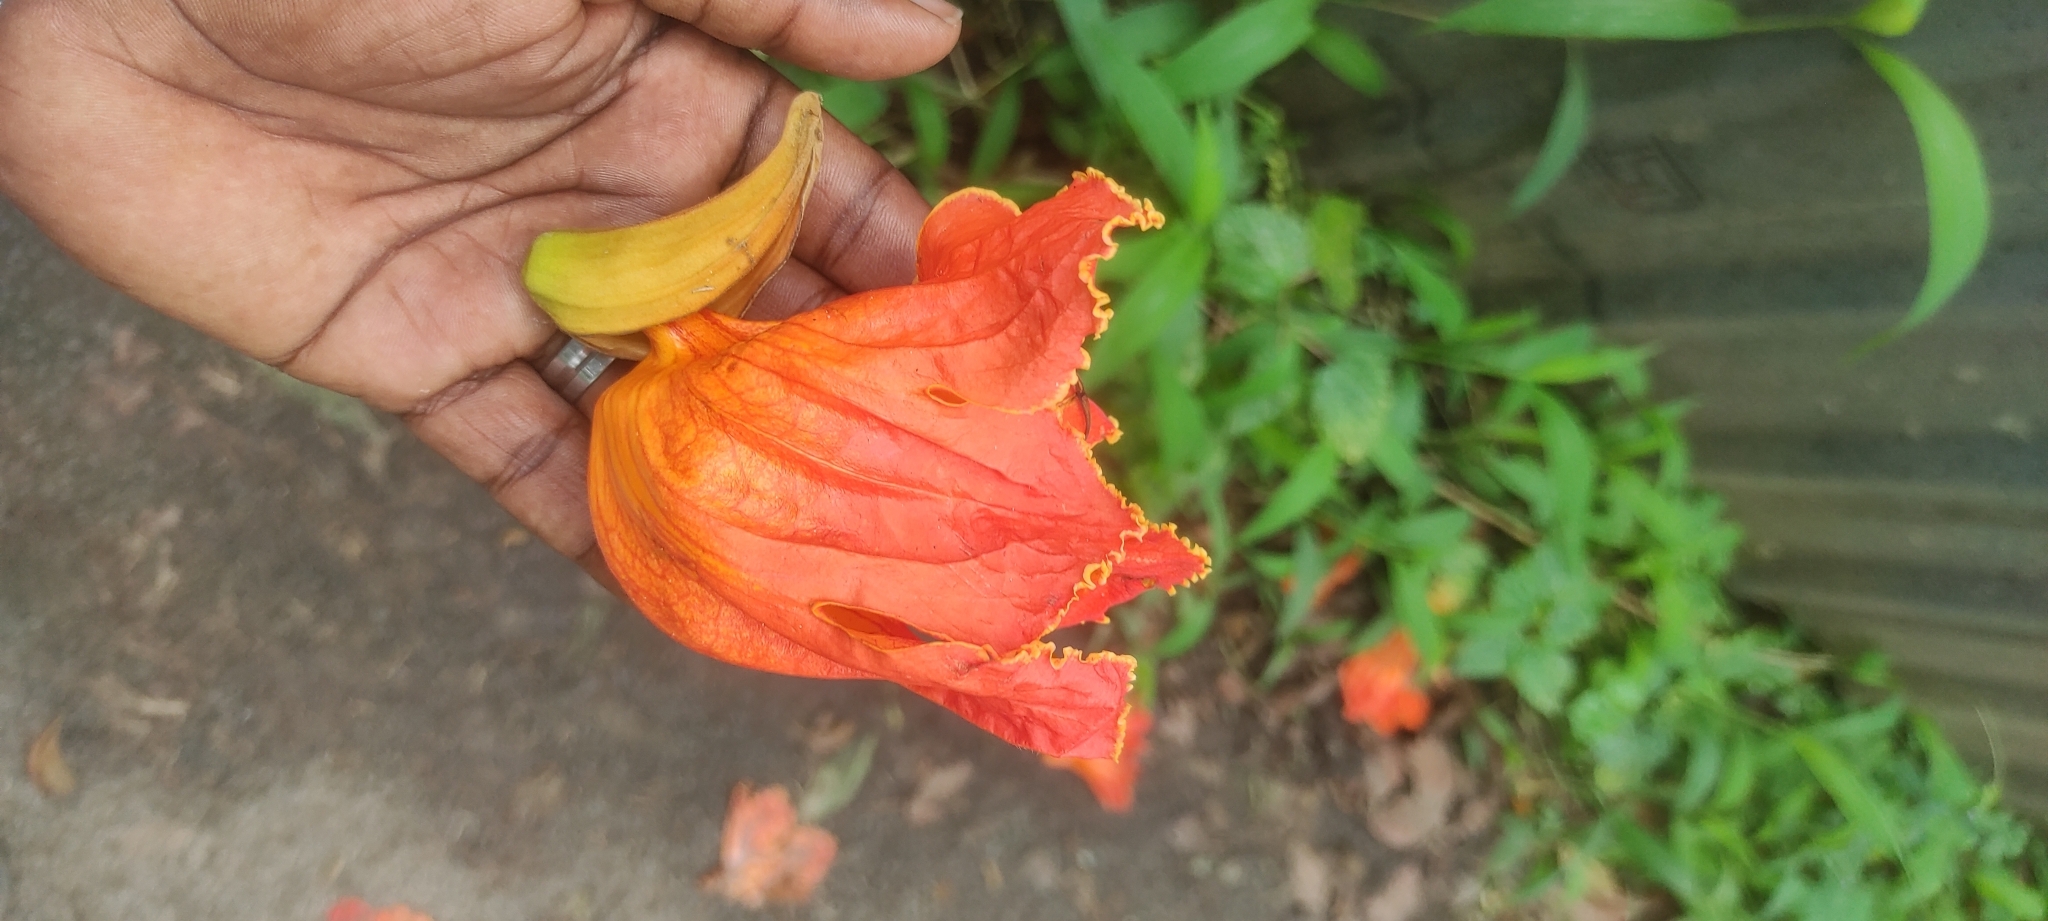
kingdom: Plantae
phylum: Tracheophyta
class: Magnoliopsida
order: Lamiales
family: Bignoniaceae
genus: Spathodea
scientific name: Spathodea campanulata
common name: African tuliptree
